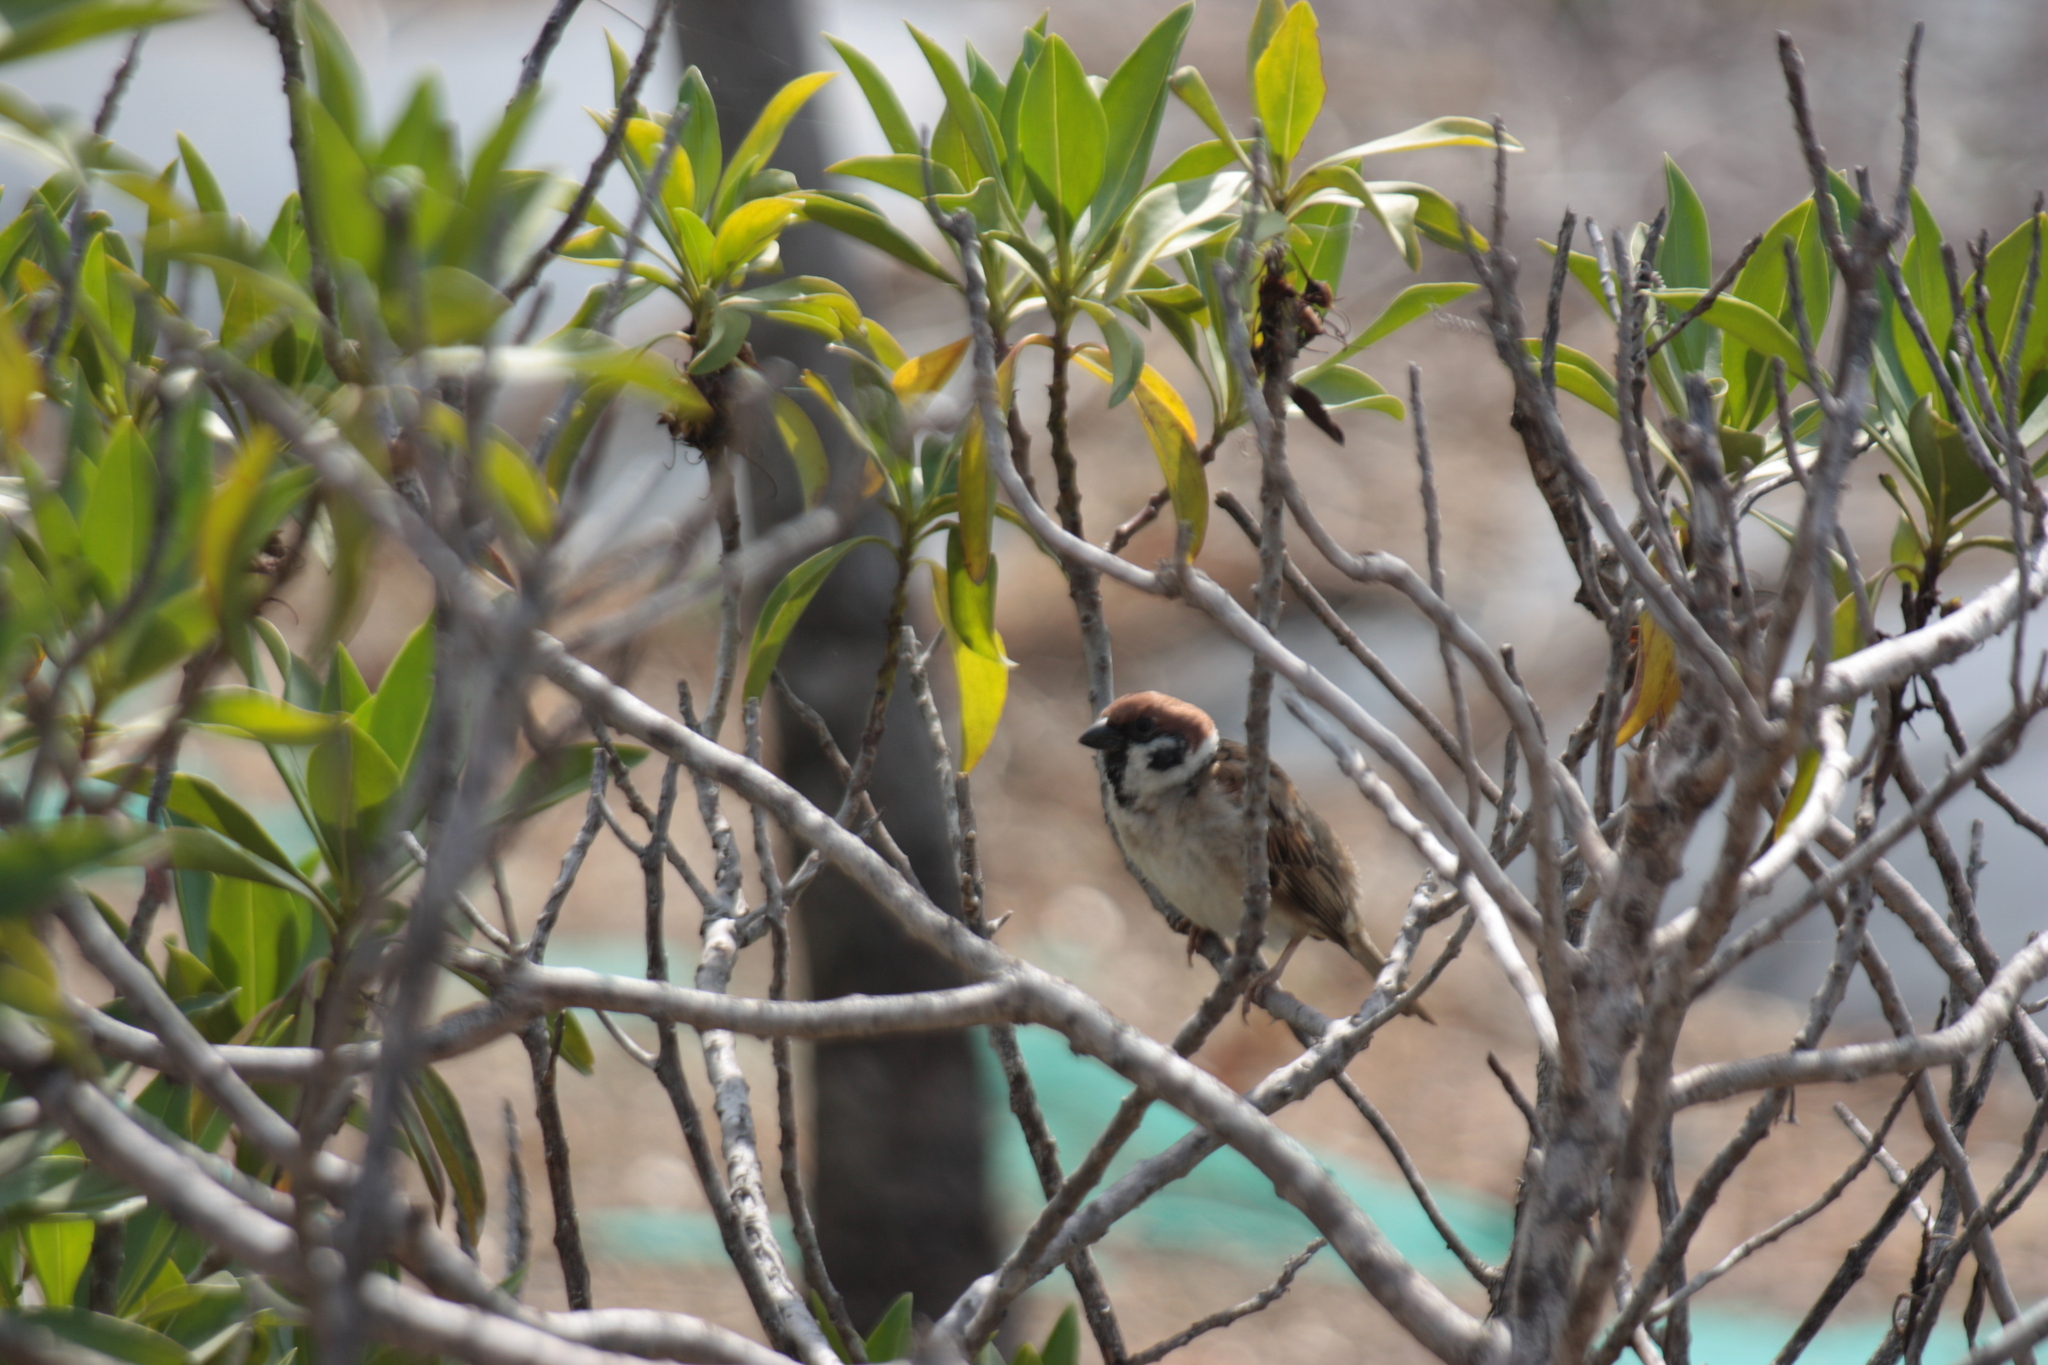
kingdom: Animalia
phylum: Chordata
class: Aves
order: Passeriformes
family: Passeridae
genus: Passer
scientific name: Passer montanus
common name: Eurasian tree sparrow
